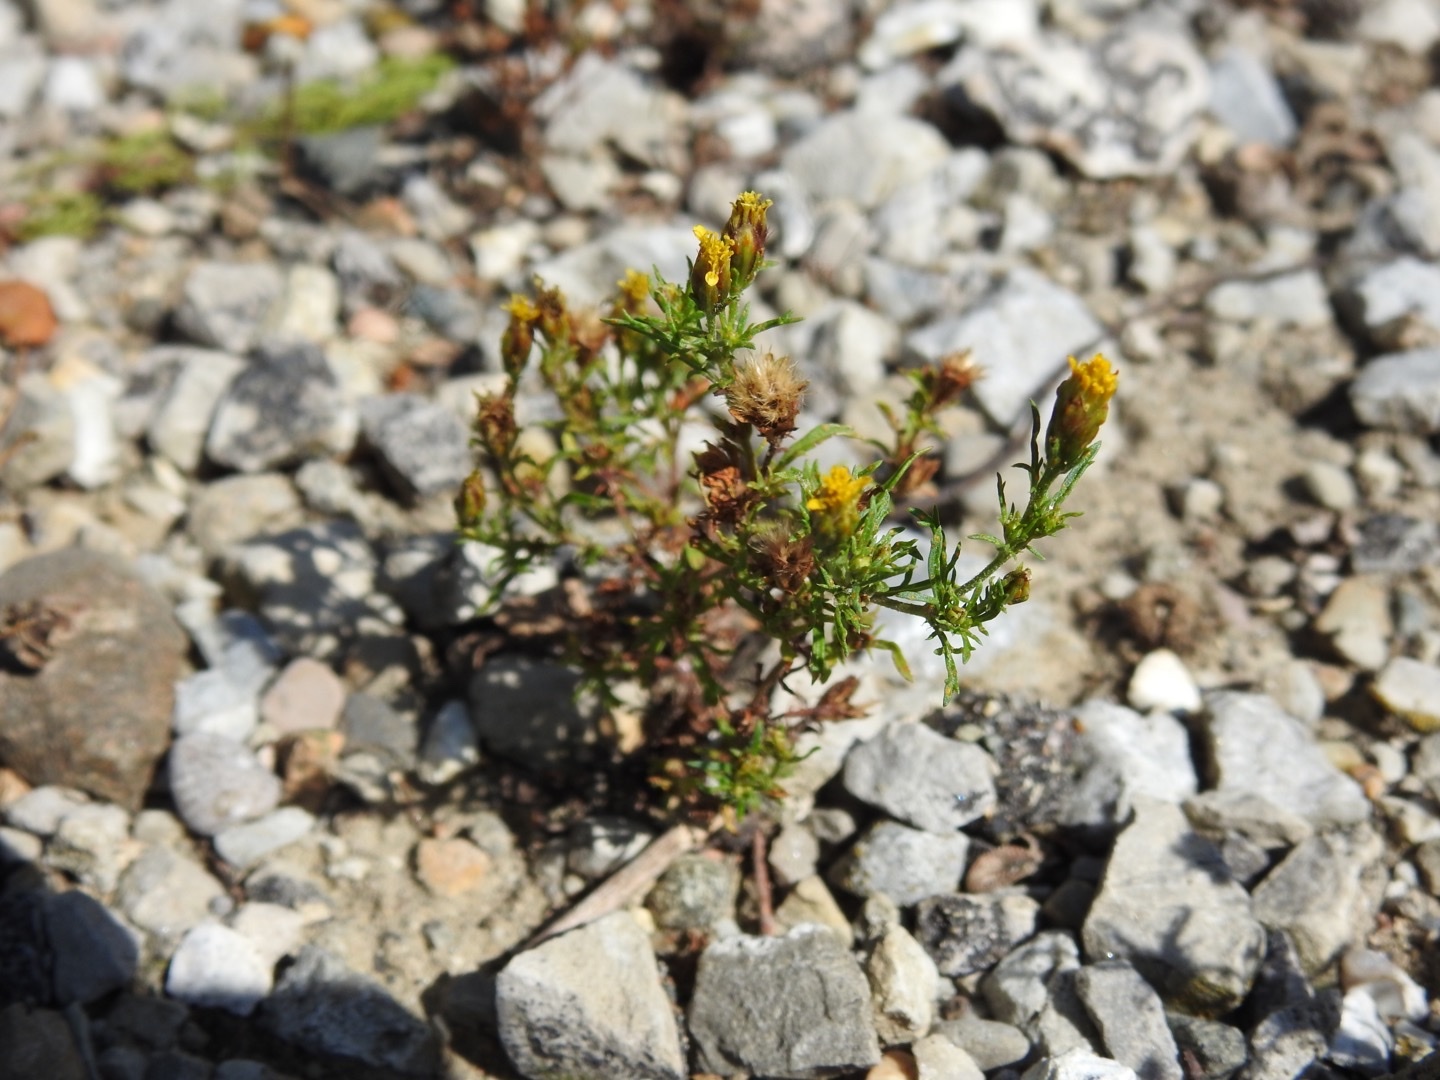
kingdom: Plantae
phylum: Tracheophyta
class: Magnoliopsida
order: Asterales
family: Asteraceae
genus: Dyssodia
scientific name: Dyssodia papposa
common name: Dogweed
